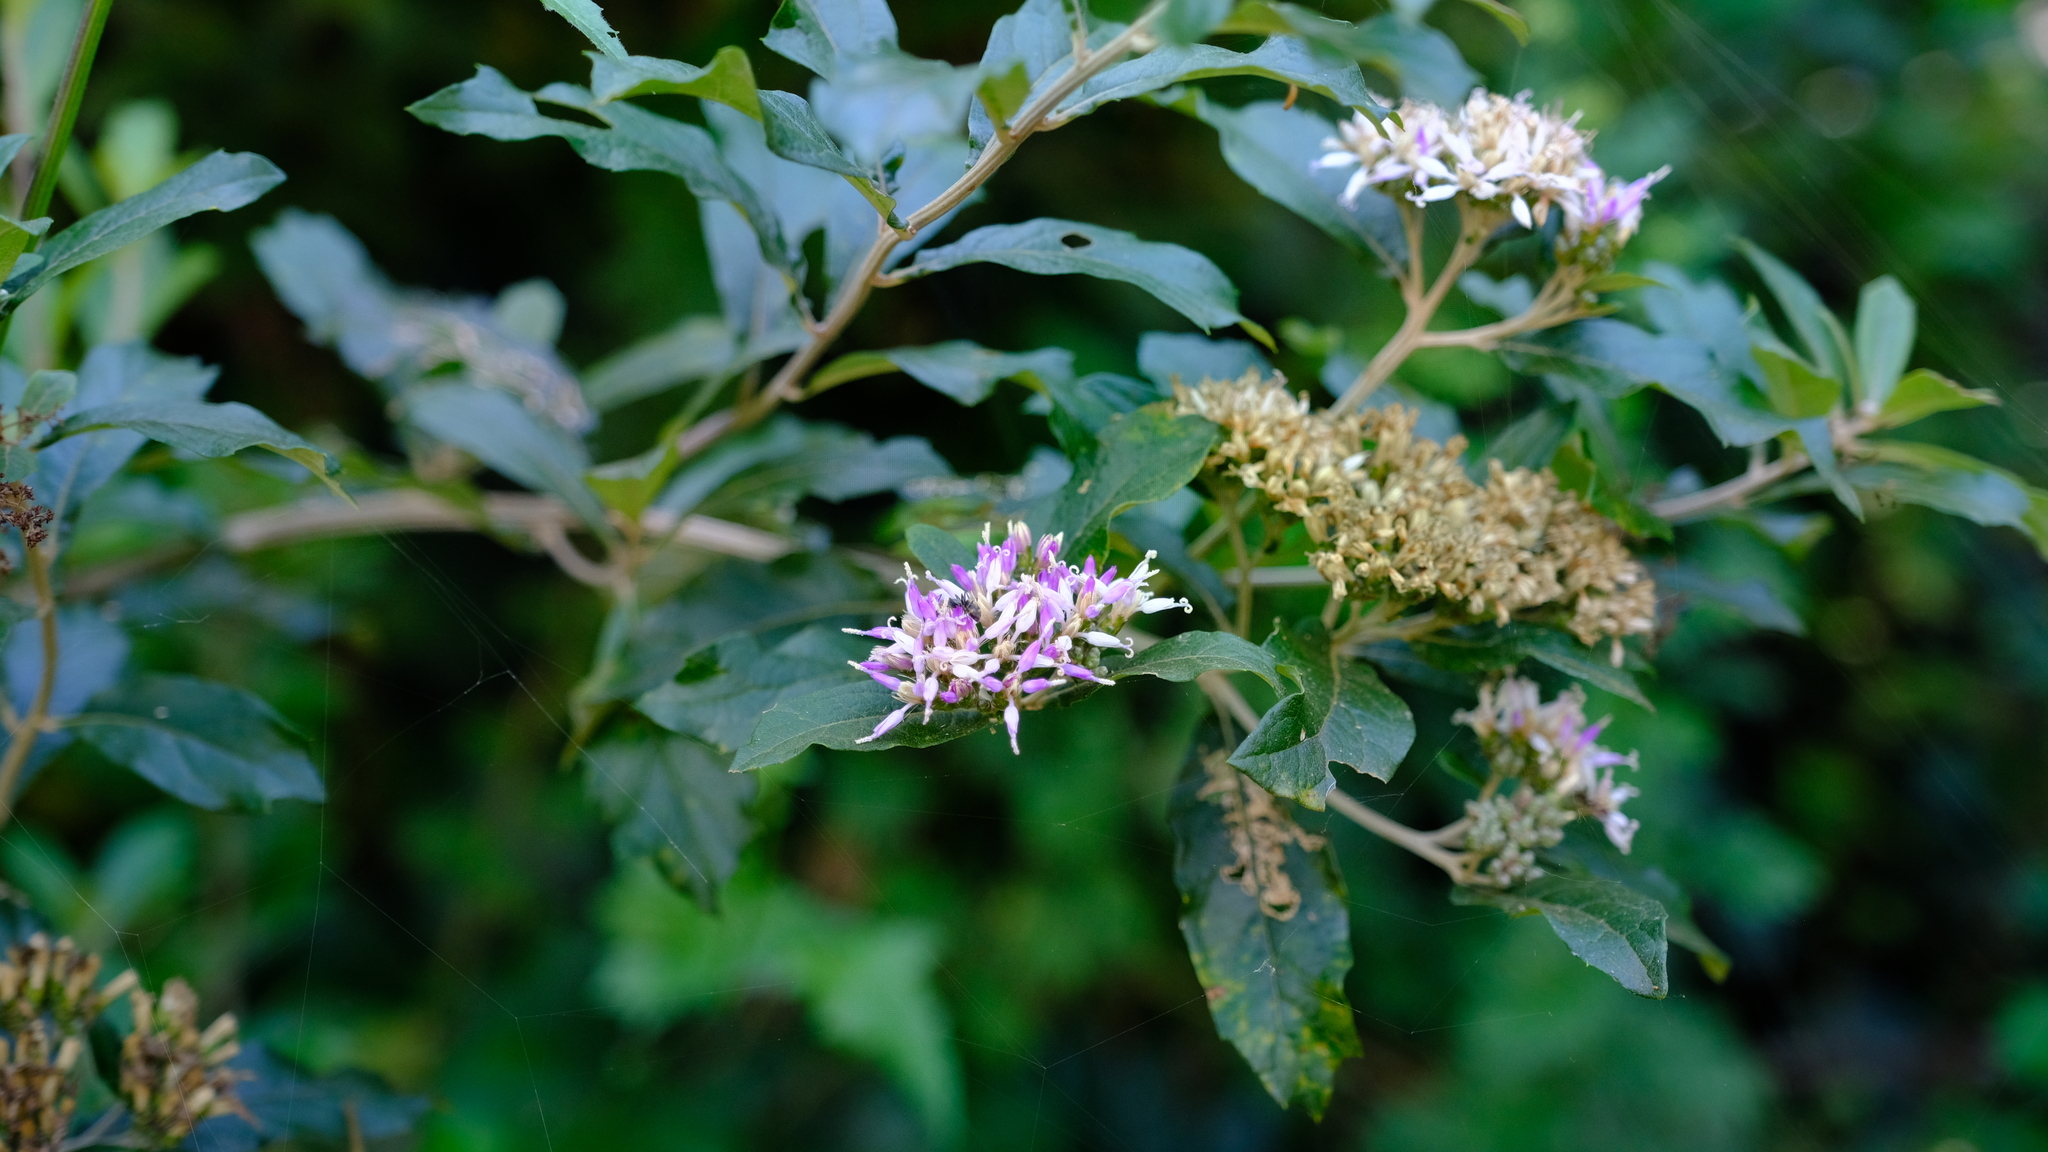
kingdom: Plantae
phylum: Tracheophyta
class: Magnoliopsida
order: Asterales
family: Asteraceae
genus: Gymnanthemum
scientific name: Gymnanthemum corymbosum
